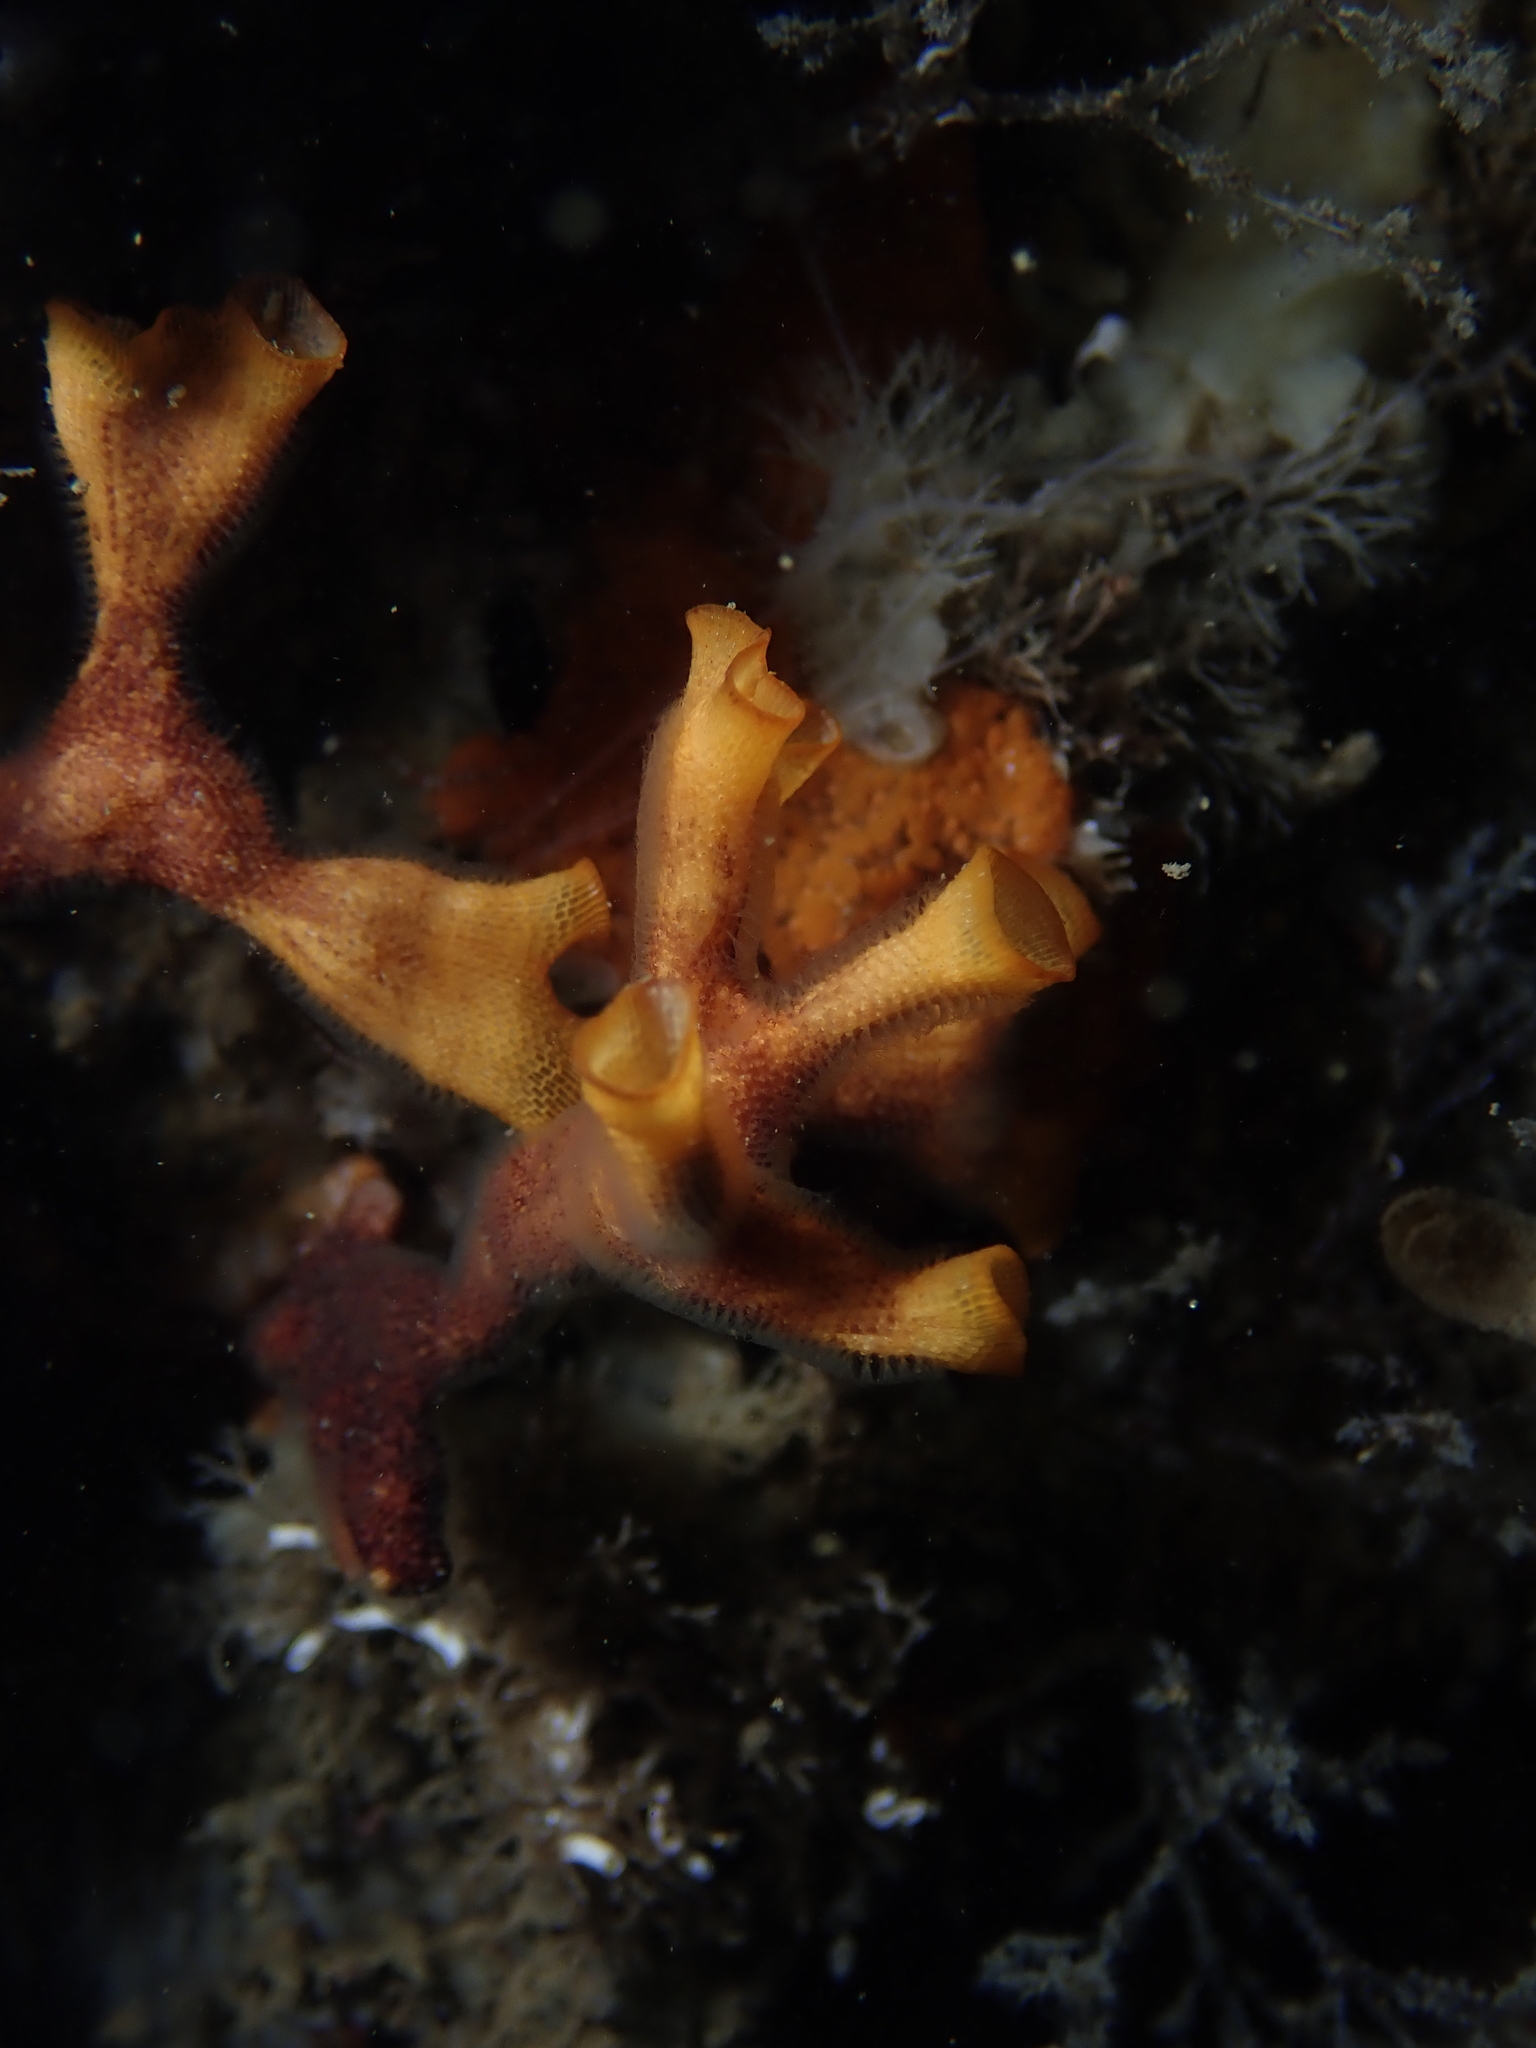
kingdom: Animalia
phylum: Bryozoa
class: Gymnolaemata
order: Cheilostomatida
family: Schizoporellidae
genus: Schizoporella
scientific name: Schizoporella errata
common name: Branching bryozoan
